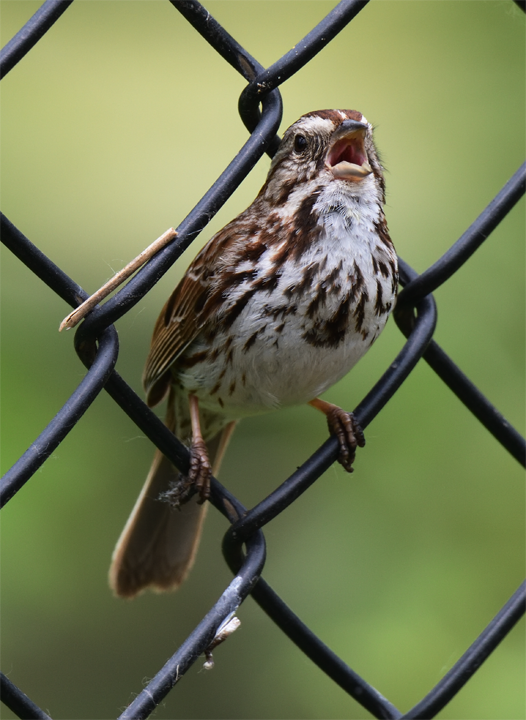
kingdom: Animalia
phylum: Chordata
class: Aves
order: Passeriformes
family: Passerellidae
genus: Melospiza
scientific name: Melospiza melodia
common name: Song sparrow
